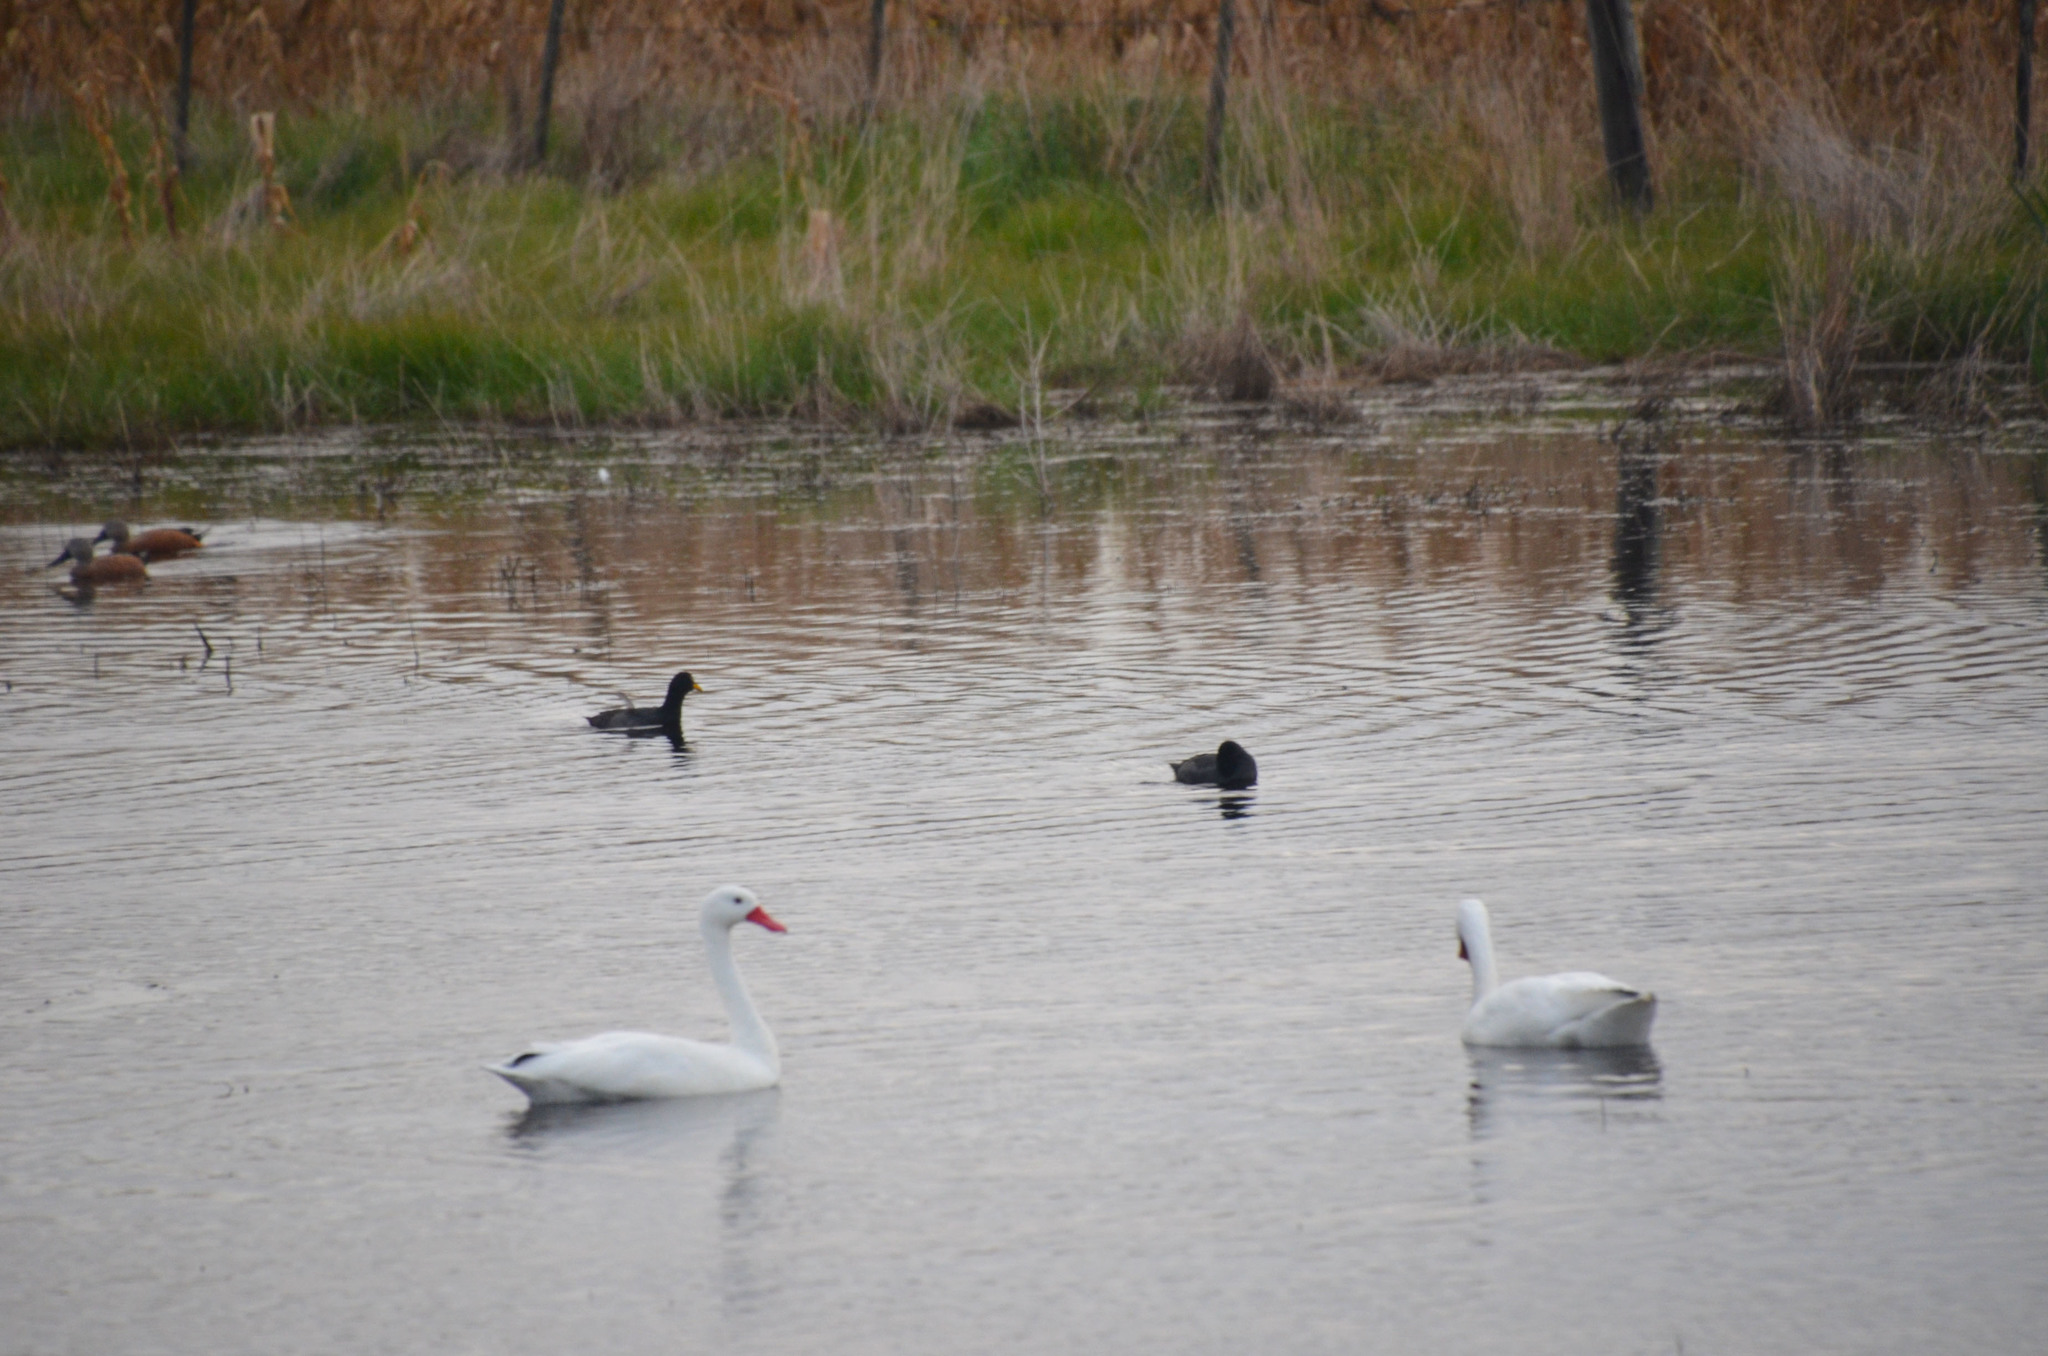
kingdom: Animalia
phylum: Chordata
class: Aves
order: Anseriformes
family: Anatidae
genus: Coscoroba
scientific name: Coscoroba coscoroba
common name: Coscoroba swan
